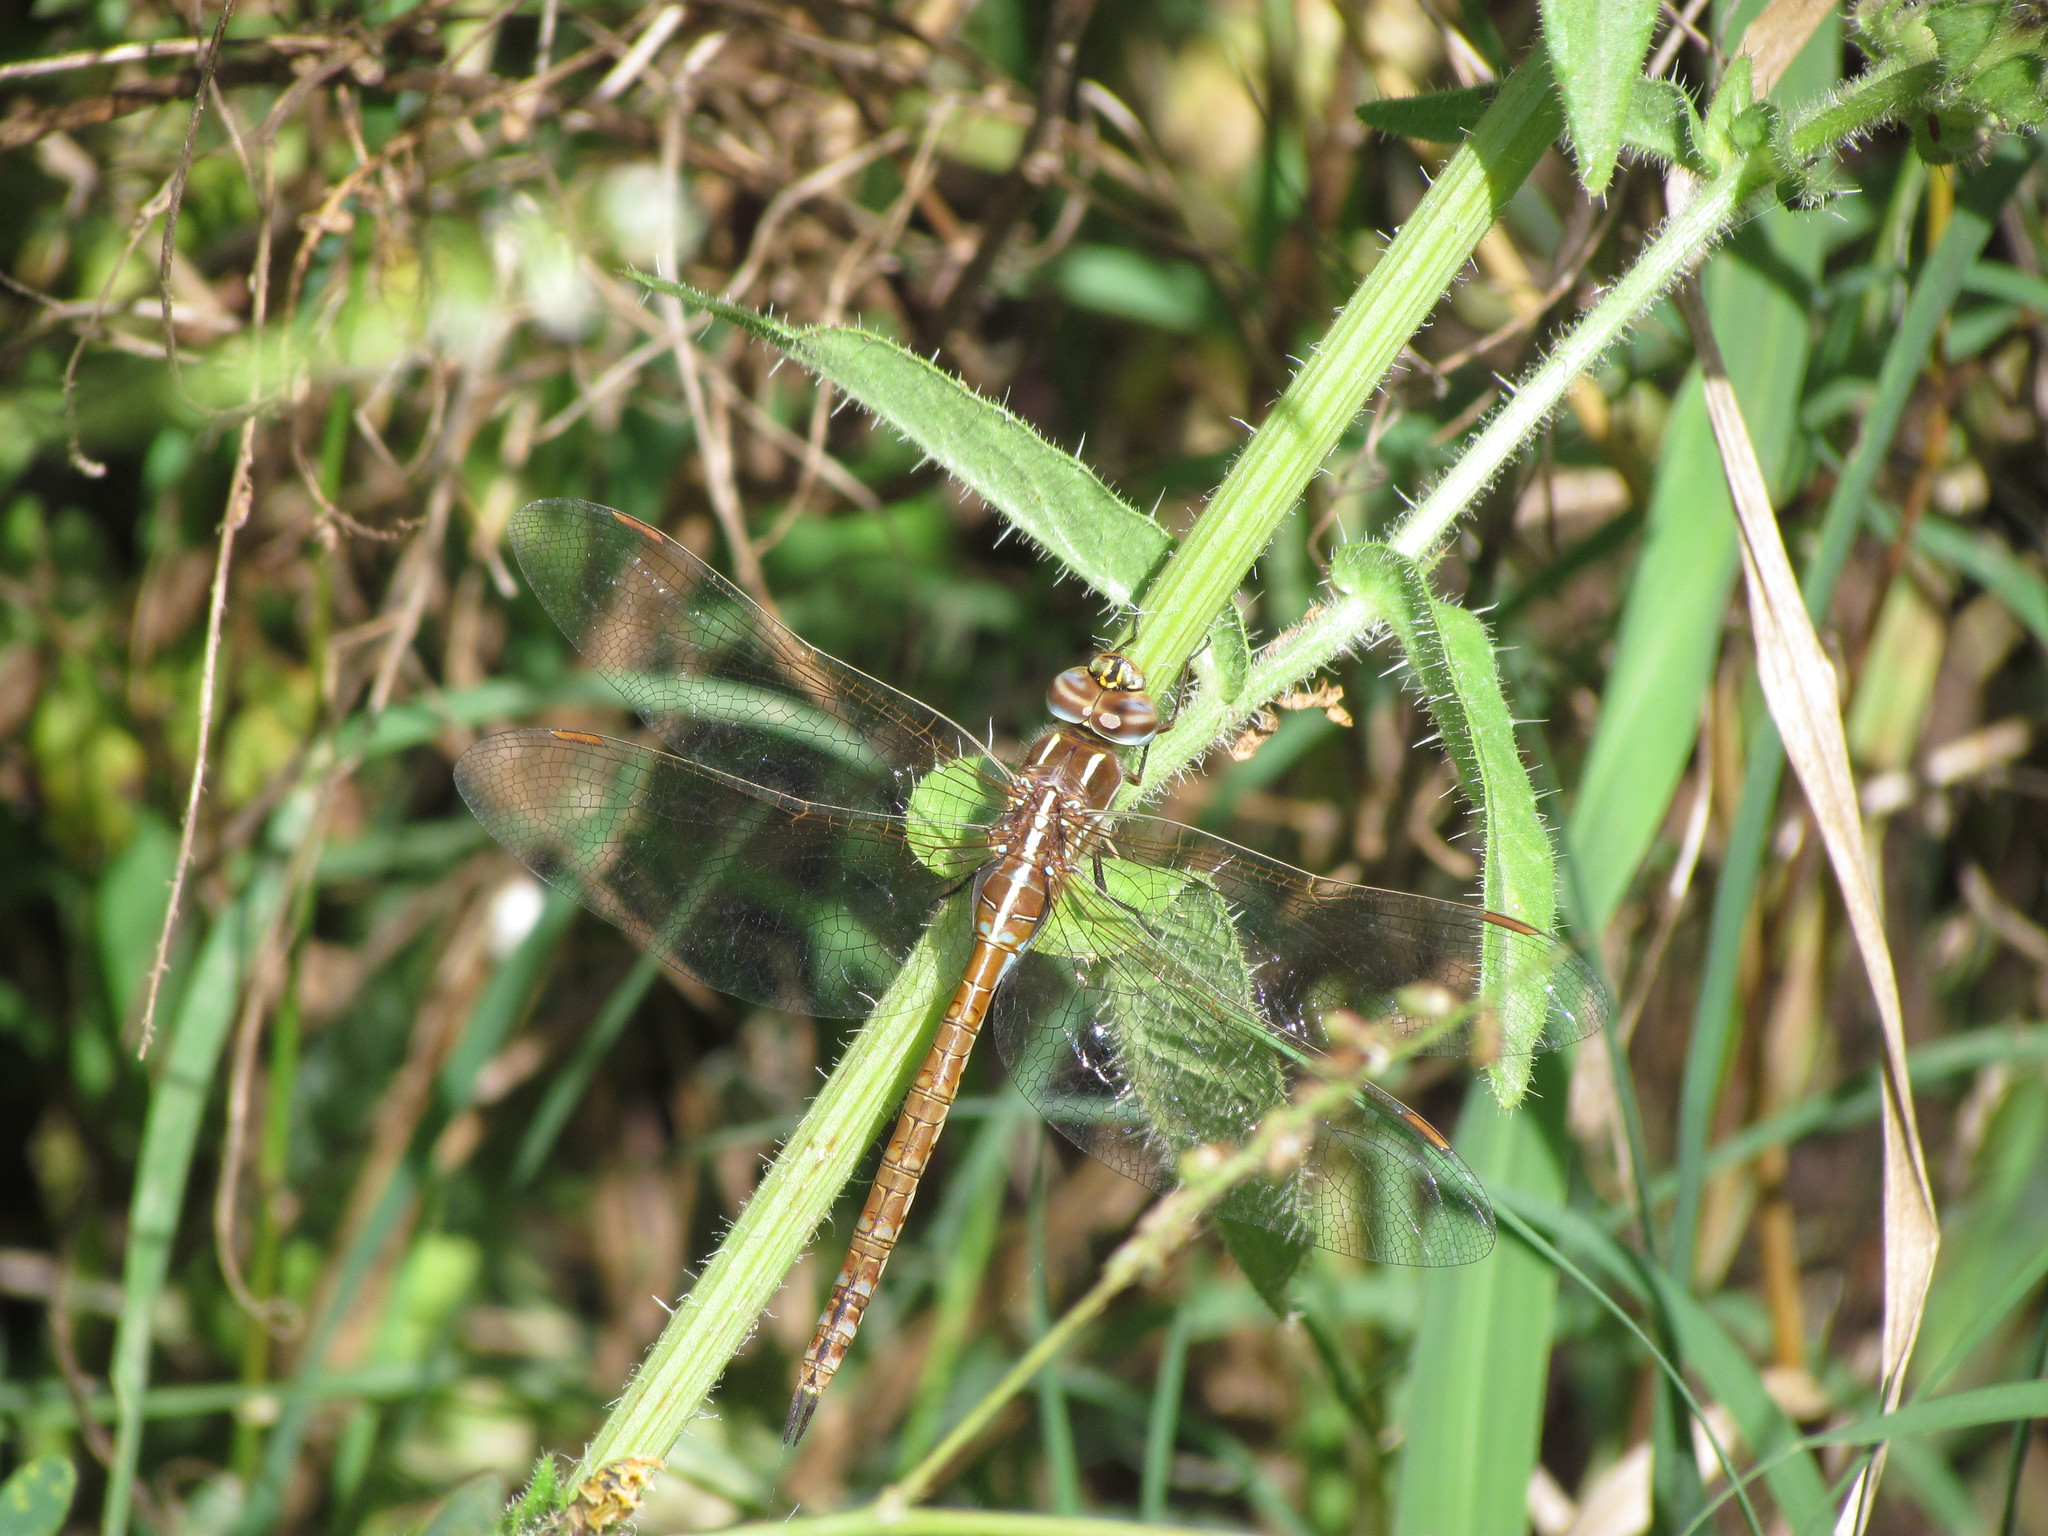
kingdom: Animalia
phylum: Arthropoda
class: Insecta
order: Odonata
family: Aeshnidae
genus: Rhionaeschna
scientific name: Rhionaeschna confusa
